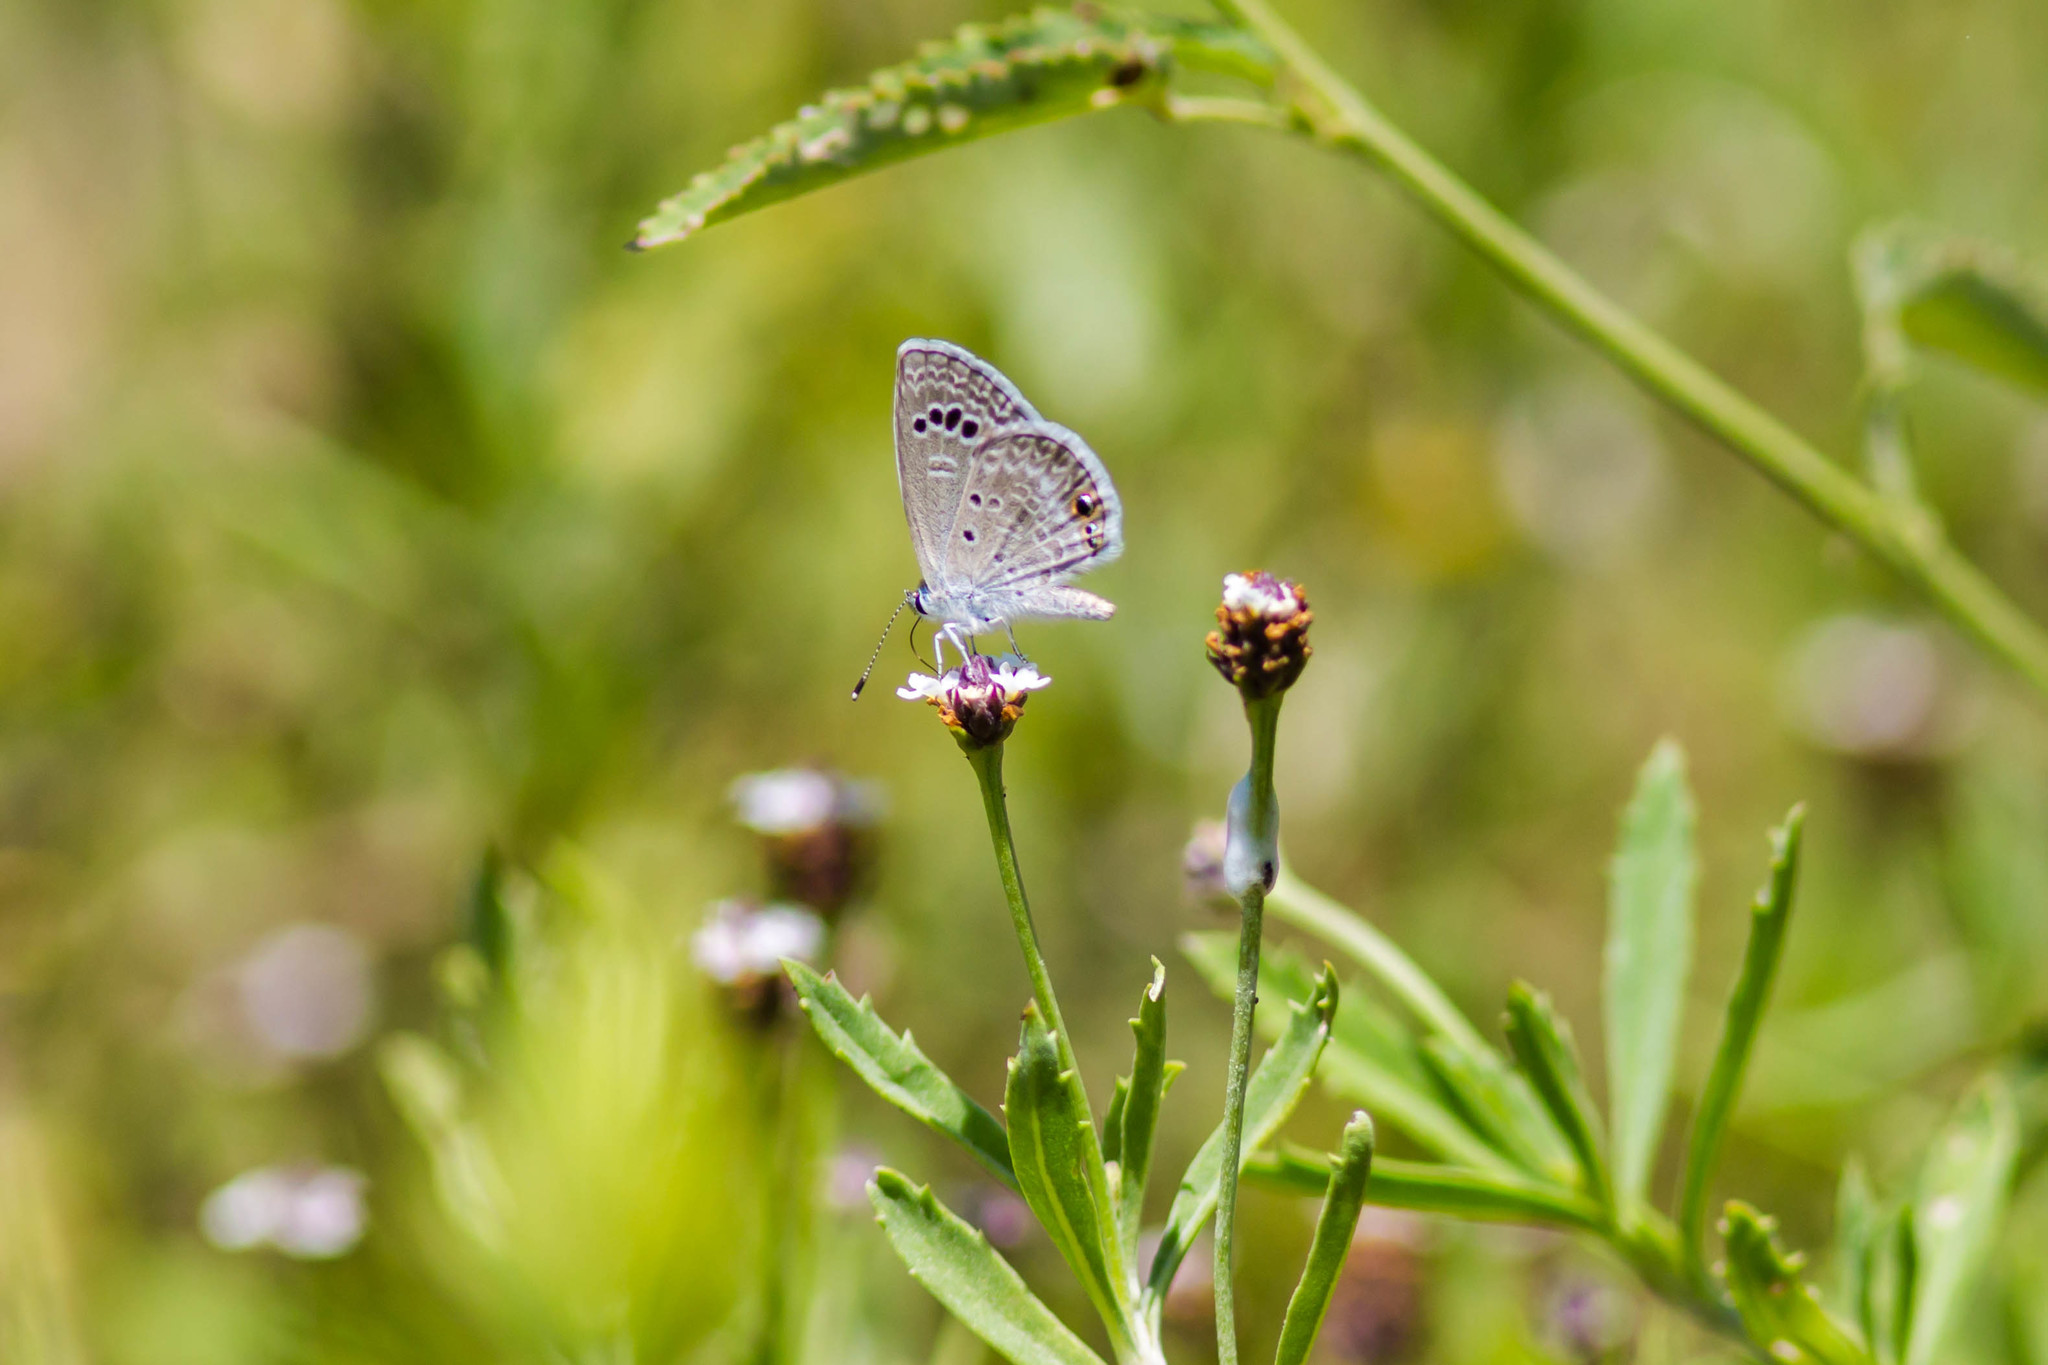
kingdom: Animalia
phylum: Arthropoda
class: Insecta
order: Lepidoptera
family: Lycaenidae
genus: Echinargus
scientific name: Echinargus isola
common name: Reakirt's blue
